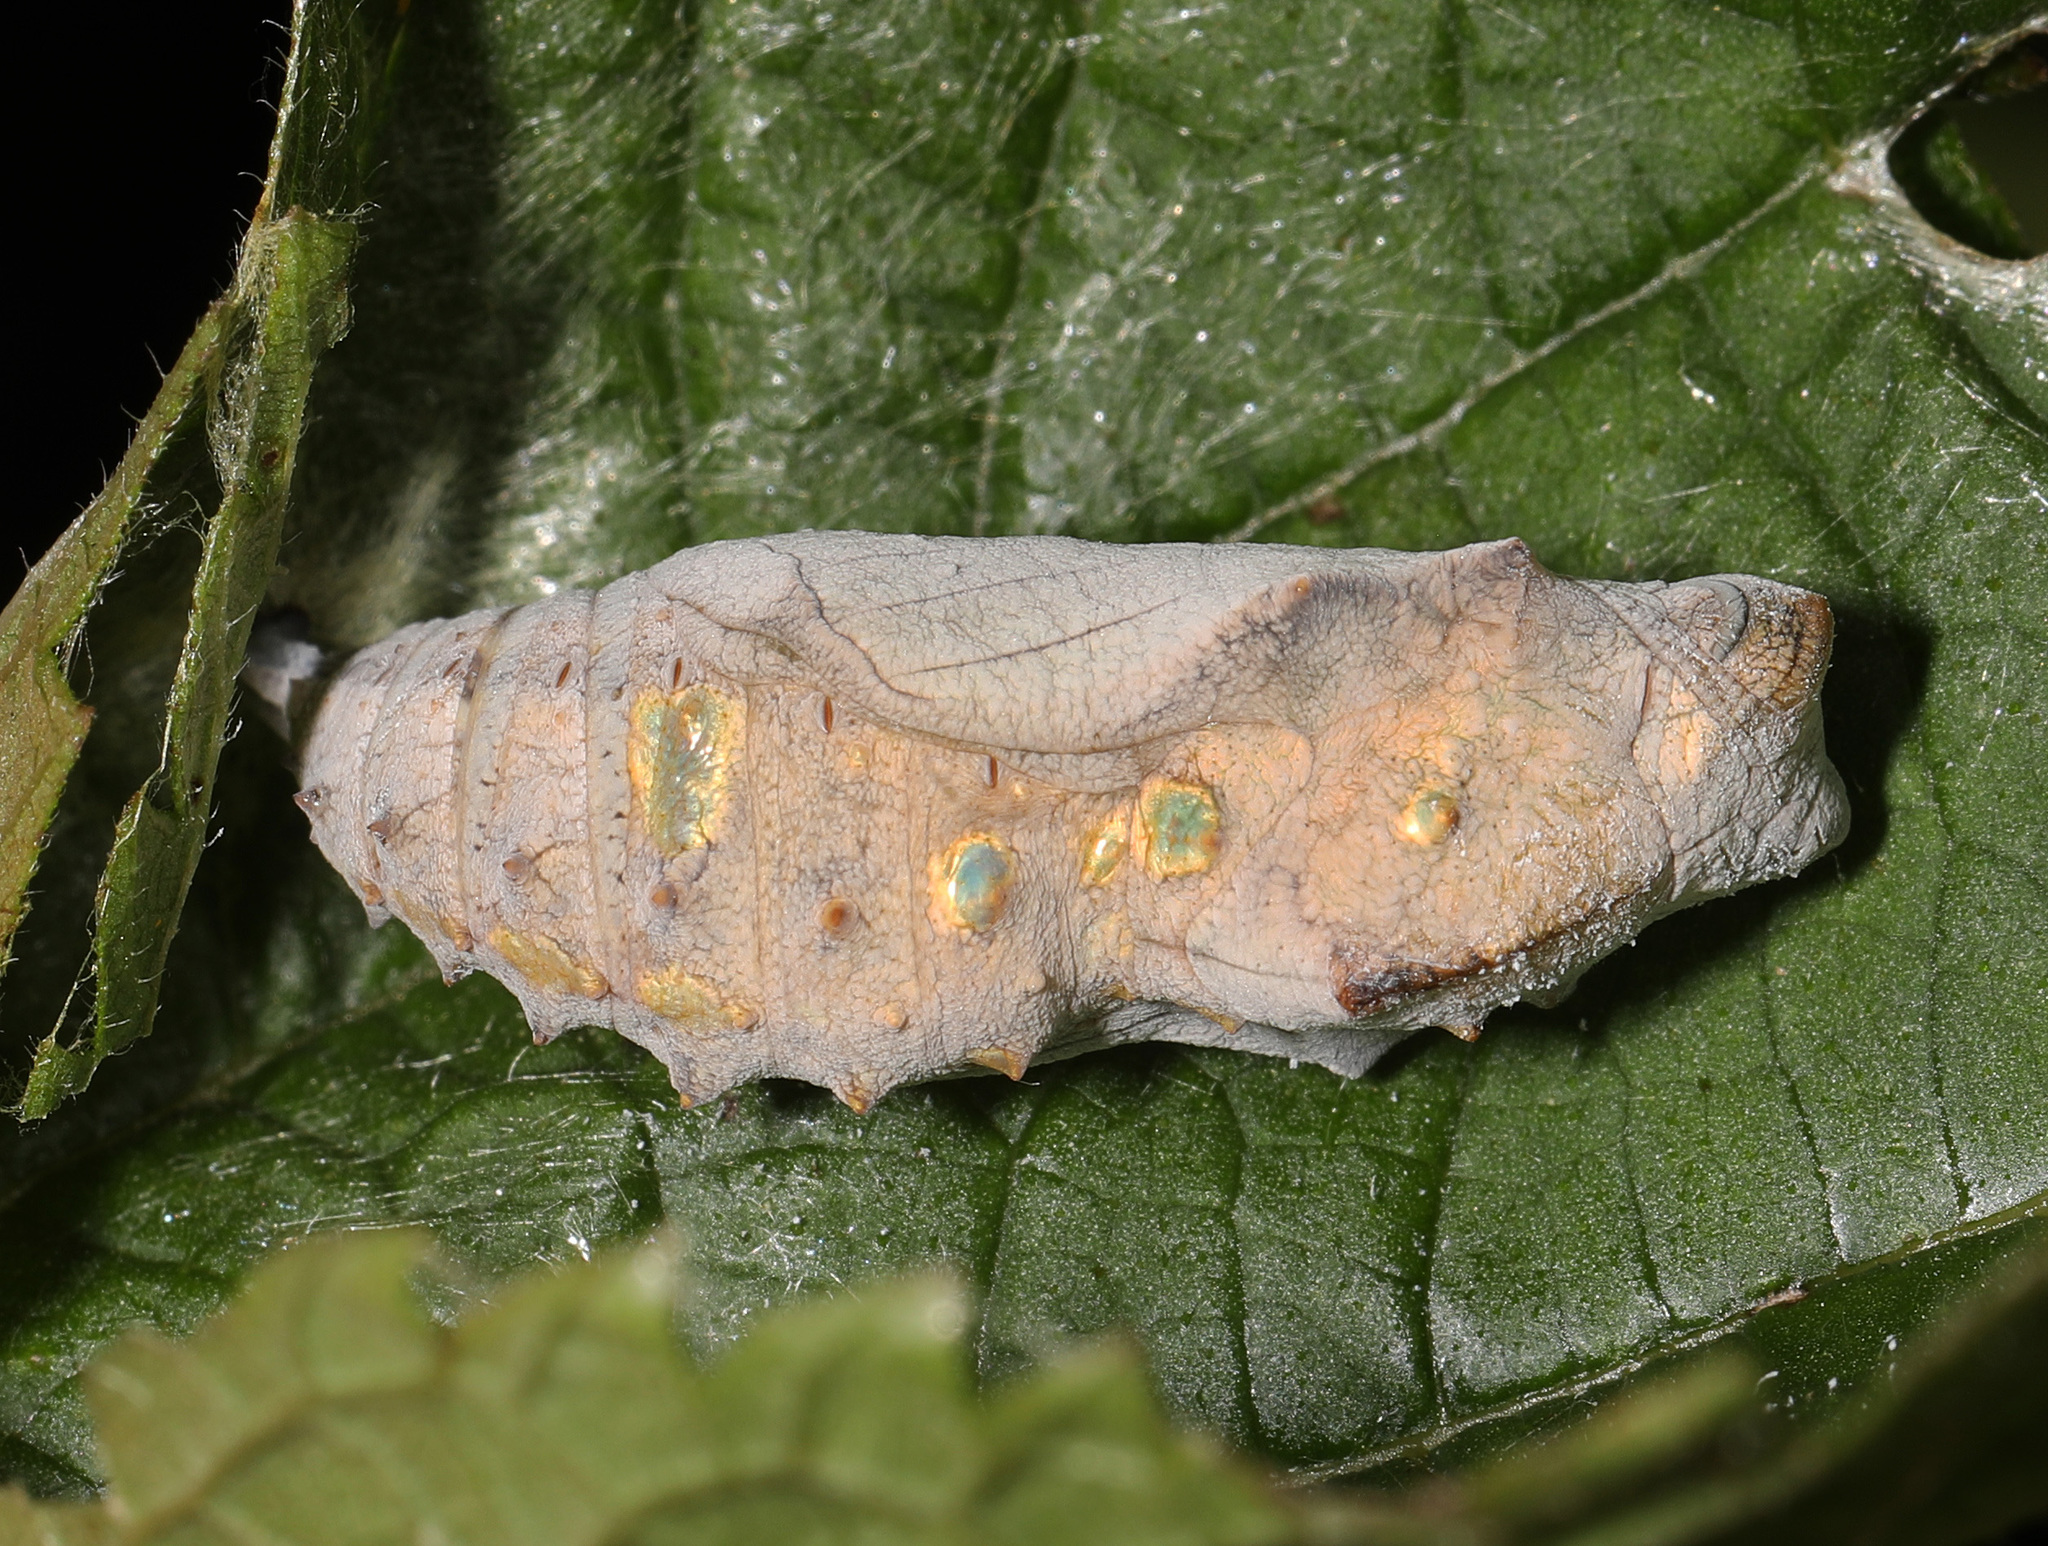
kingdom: Animalia
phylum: Arthropoda
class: Insecta
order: Lepidoptera
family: Nymphalidae
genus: Vanessa
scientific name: Vanessa atalanta
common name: Red admiral
